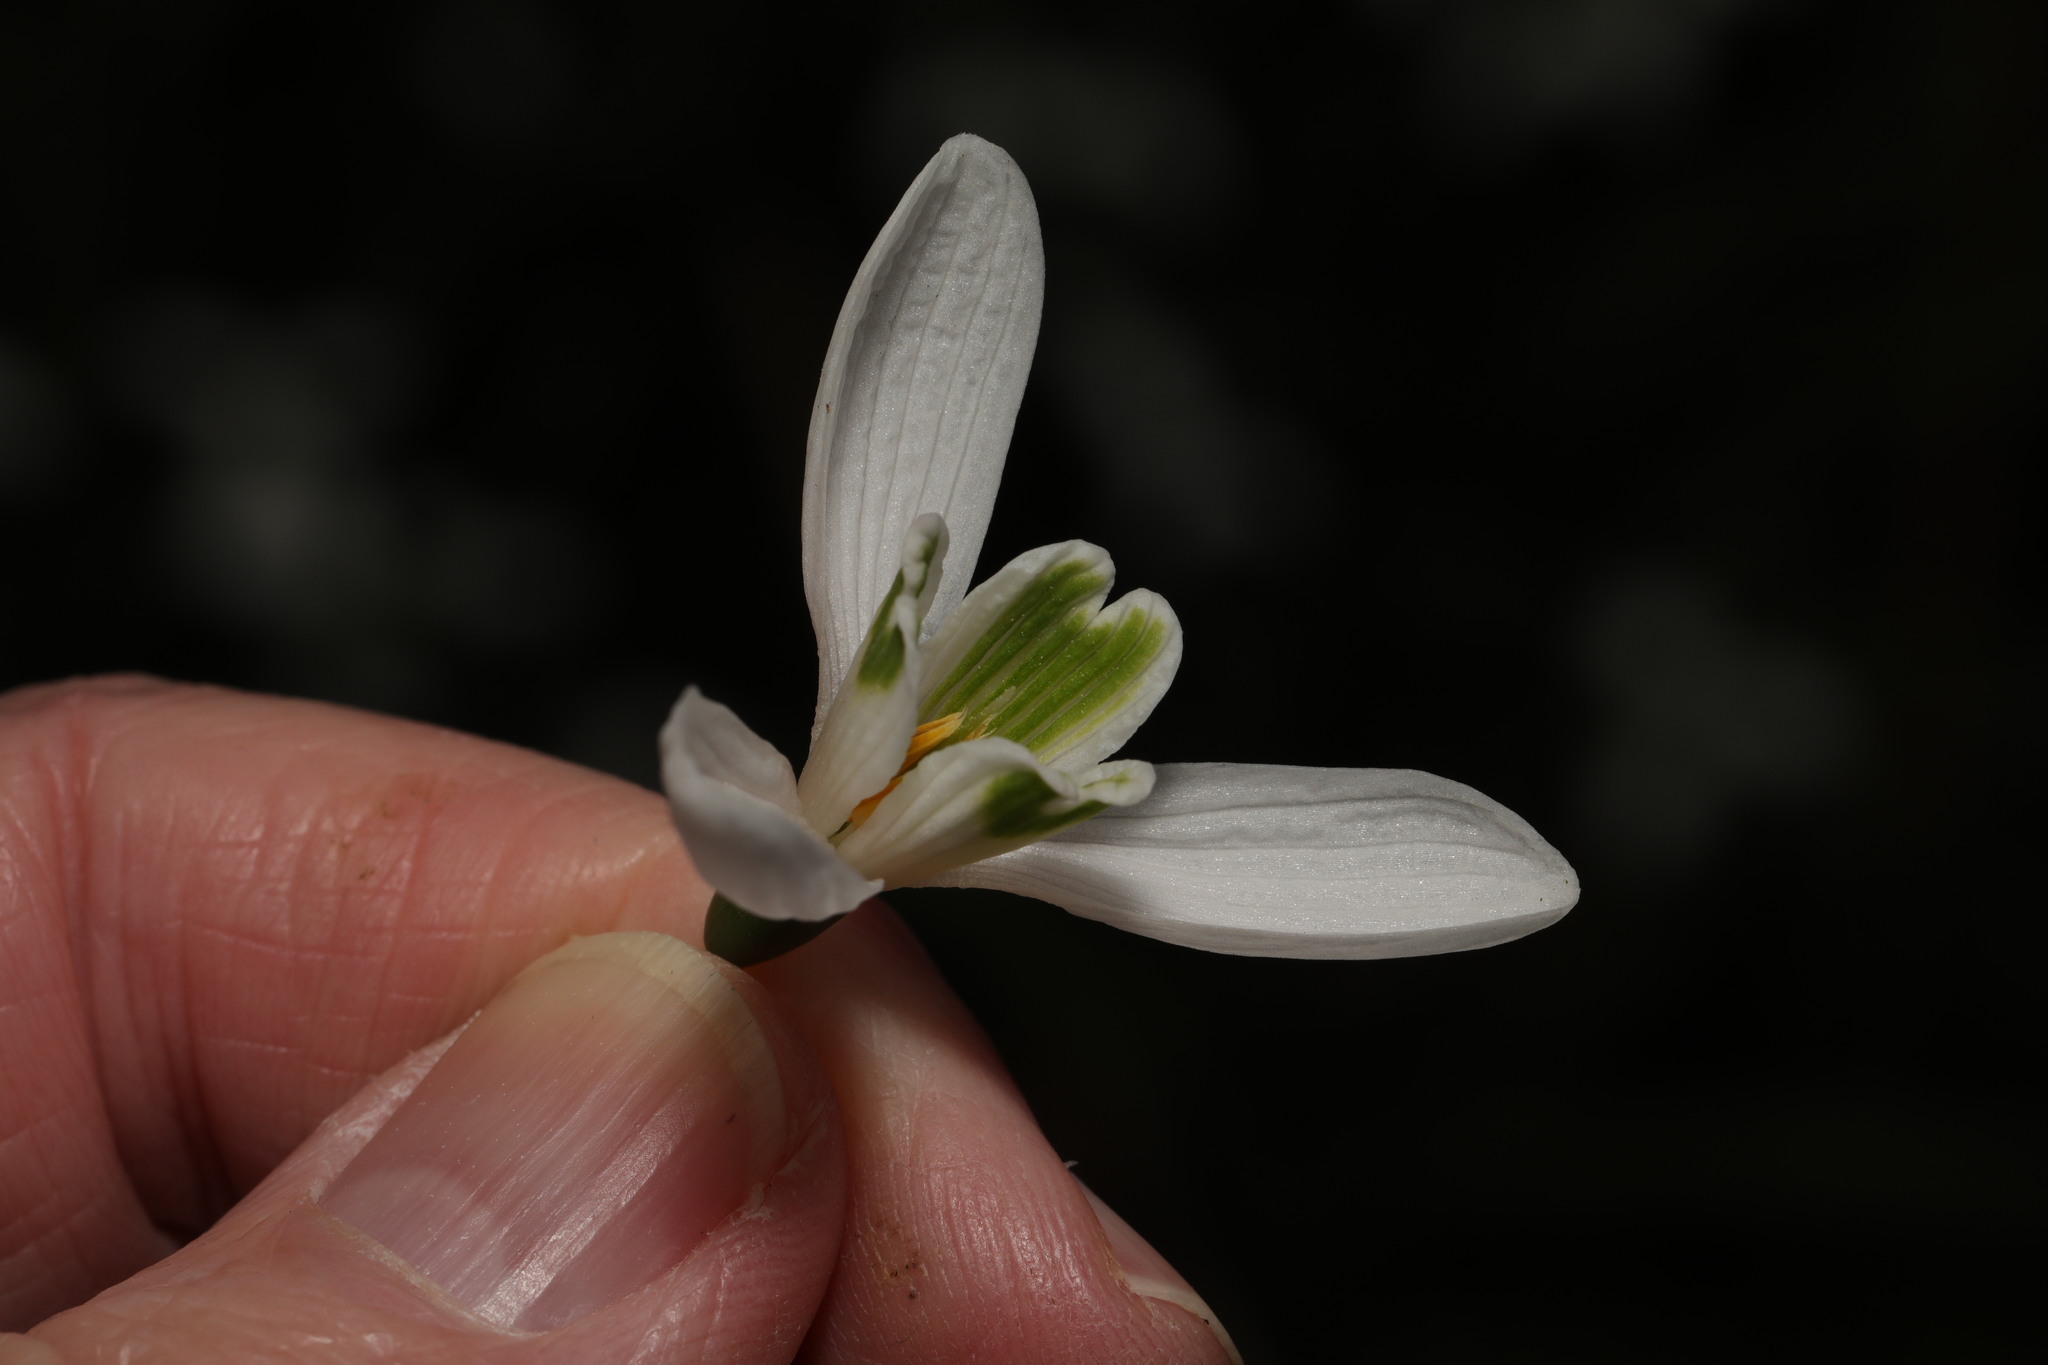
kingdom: Plantae
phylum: Tracheophyta
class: Liliopsida
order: Asparagales
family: Amaryllidaceae
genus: Galanthus
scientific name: Galanthus nivalis
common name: Snowdrop
